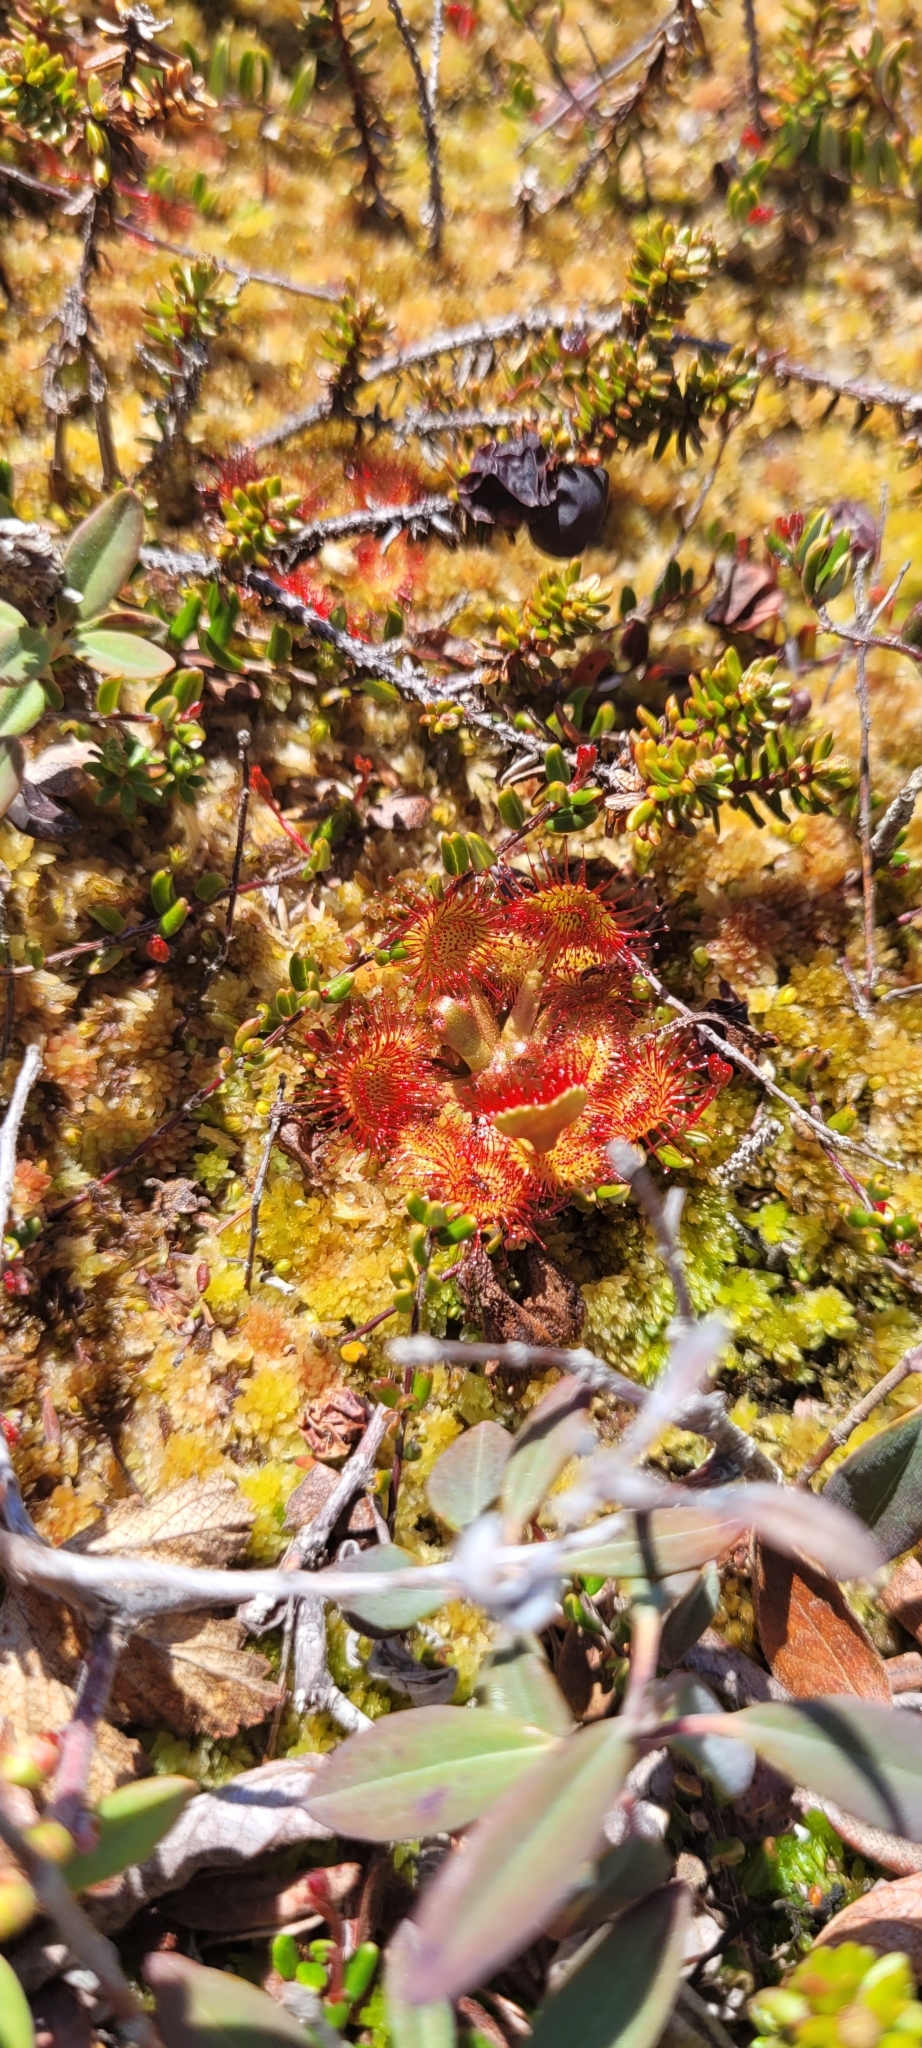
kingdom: Plantae
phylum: Tracheophyta
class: Magnoliopsida
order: Caryophyllales
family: Droseraceae
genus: Drosera
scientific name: Drosera rotundifolia
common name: Round-leaved sundew
